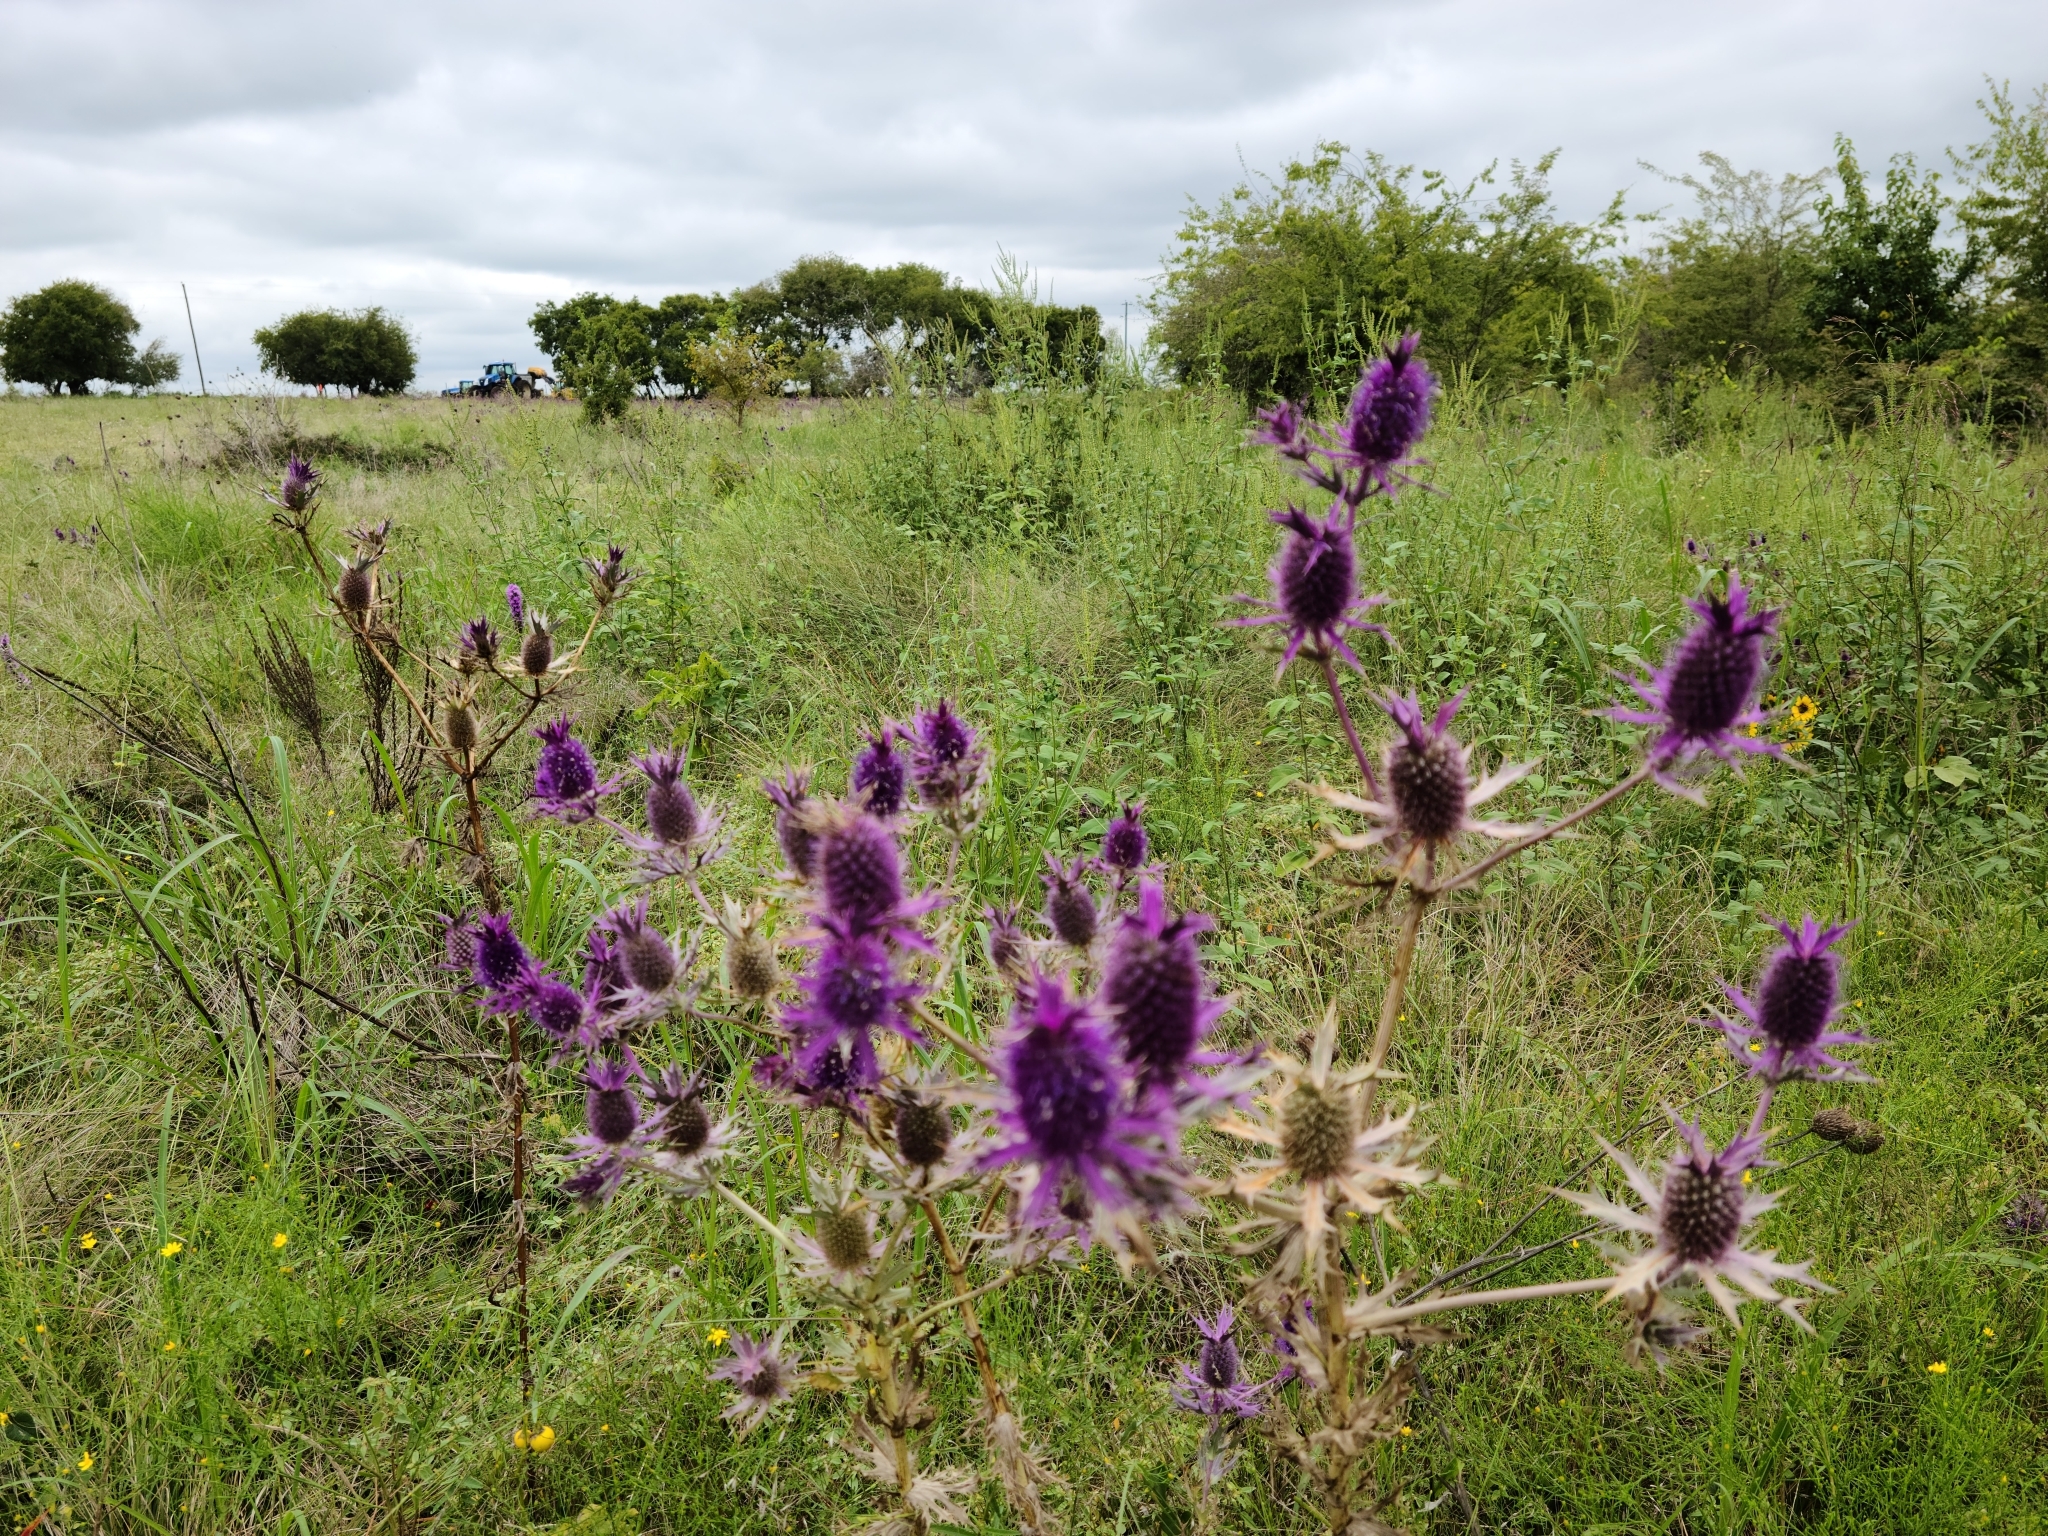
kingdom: Plantae
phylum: Tracheophyta
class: Magnoliopsida
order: Apiales
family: Apiaceae
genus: Eryngium
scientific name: Eryngium leavenworthii
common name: Leavenworth's eryngo
